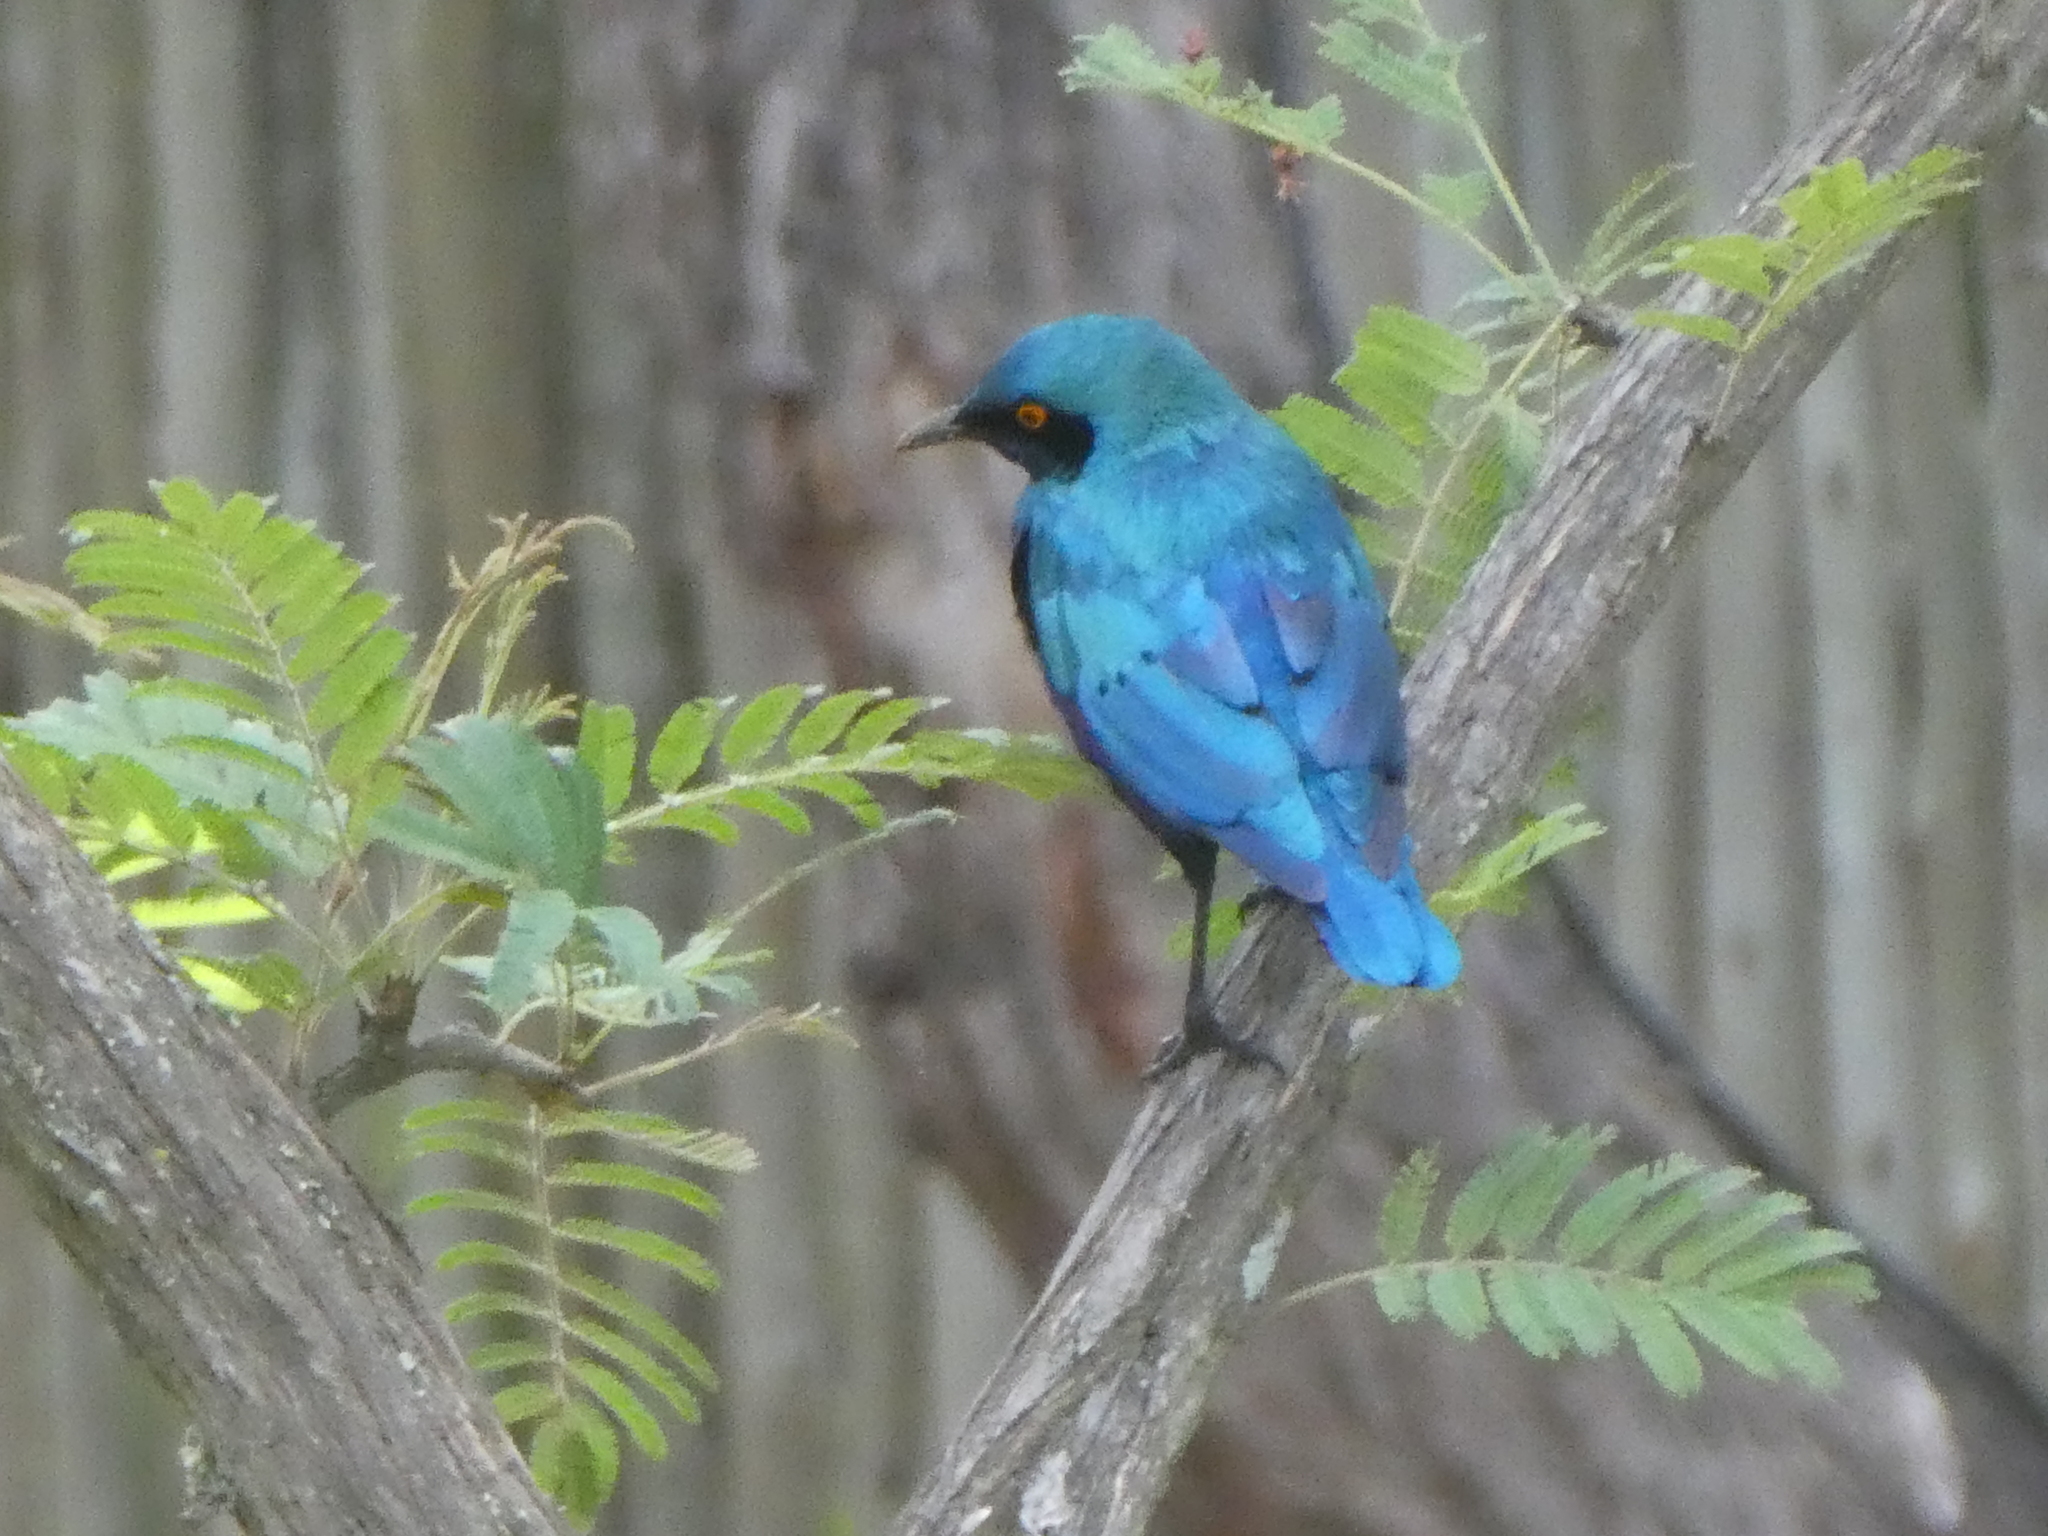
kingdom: Animalia
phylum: Chordata
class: Aves
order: Passeriformes
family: Sturnidae
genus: Lamprotornis
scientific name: Lamprotornis chalybaeus
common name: Greater blue-eared starling
